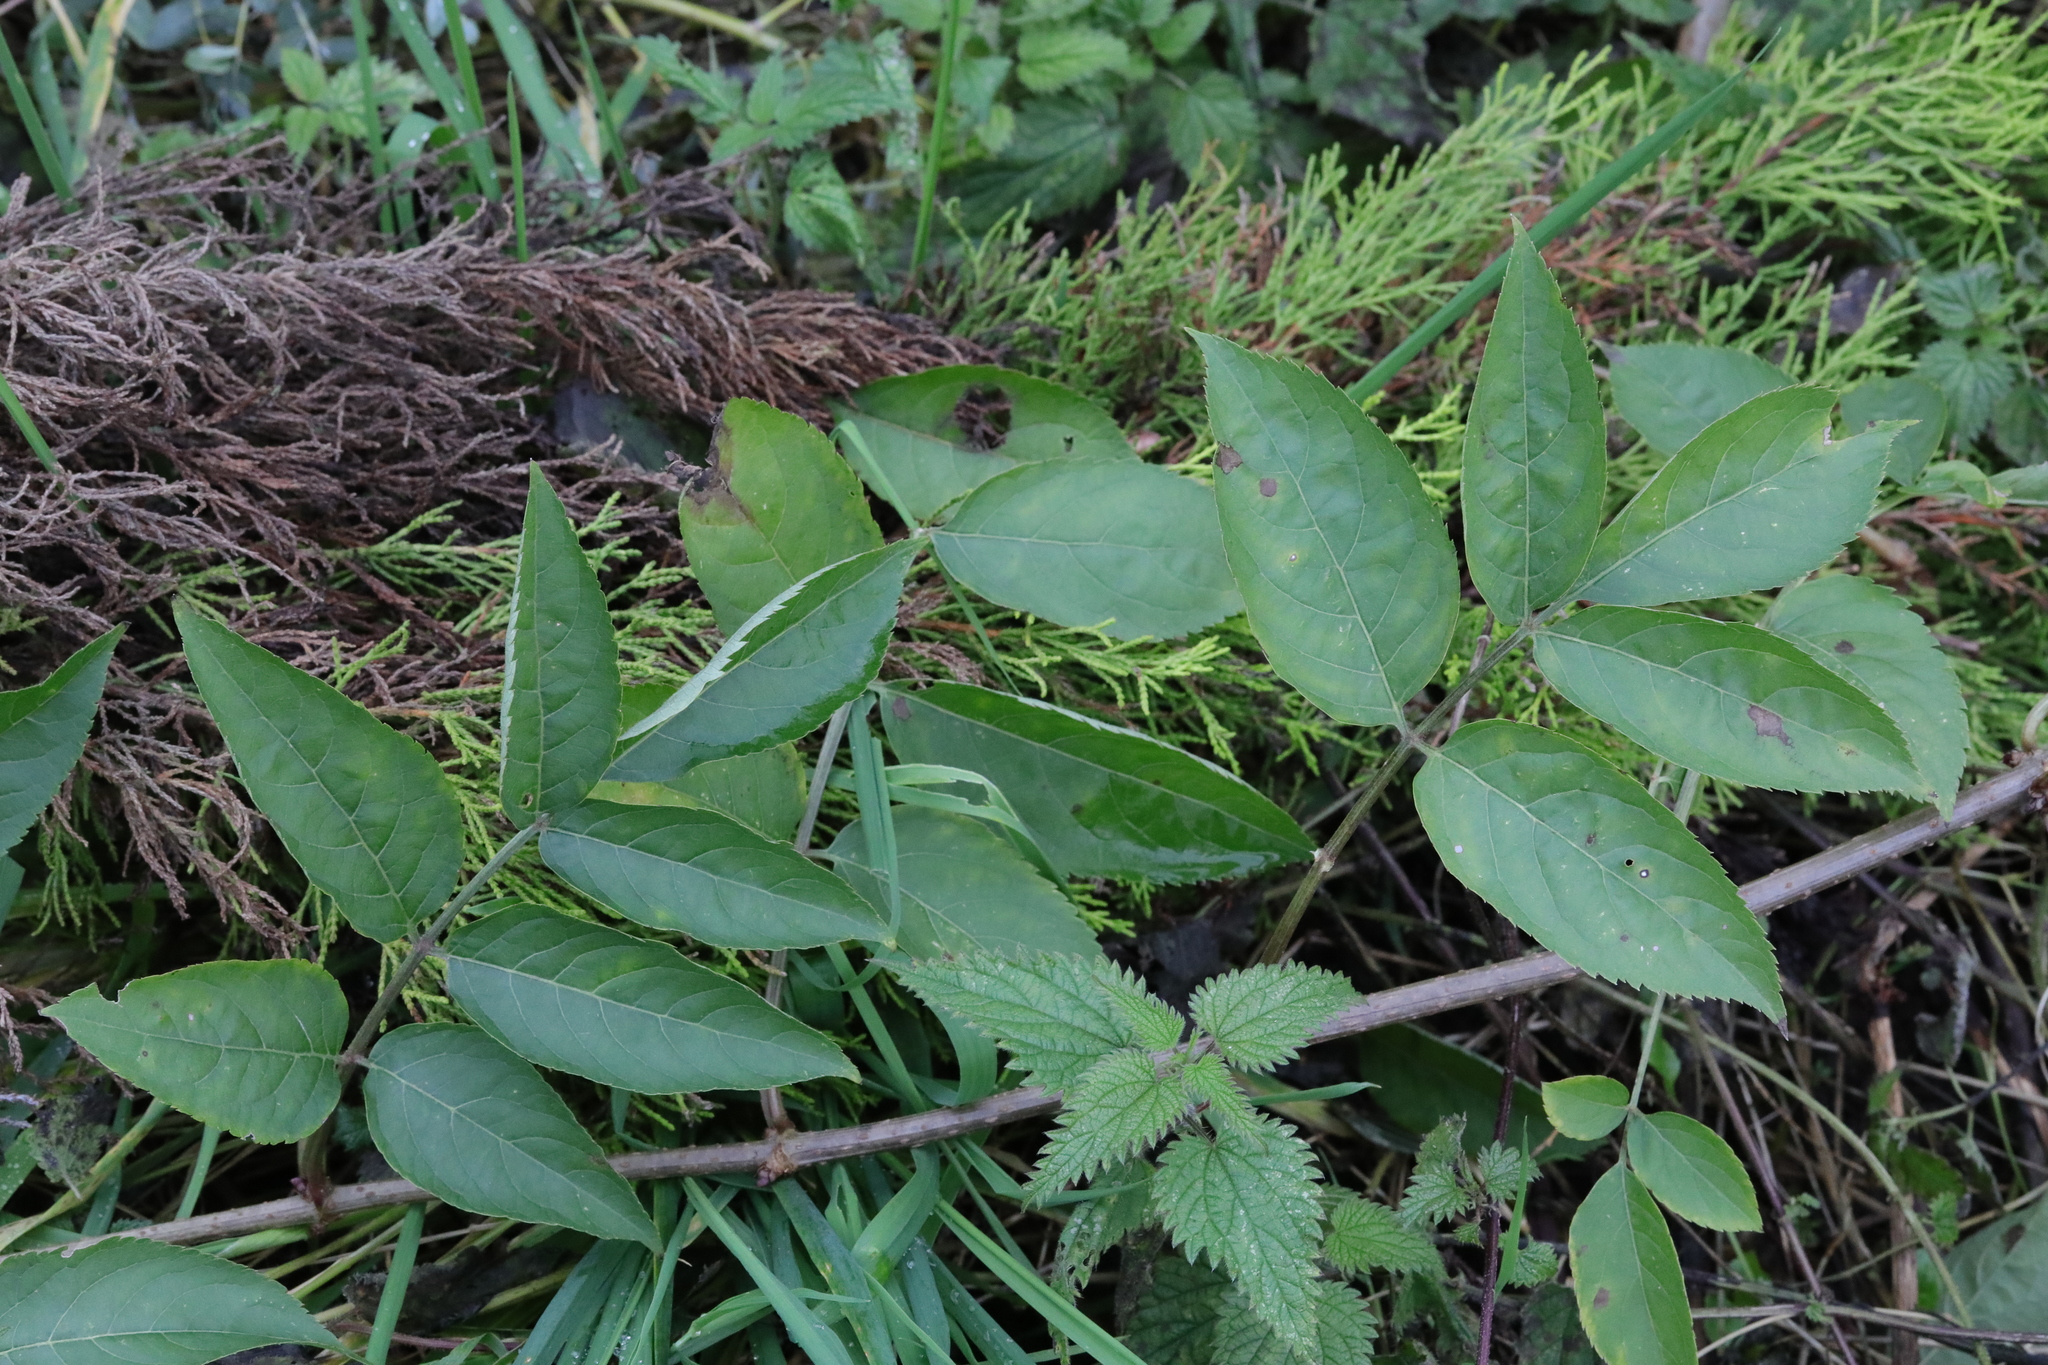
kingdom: Plantae
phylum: Tracheophyta
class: Magnoliopsida
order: Dipsacales
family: Viburnaceae
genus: Sambucus
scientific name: Sambucus nigra
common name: Elder
